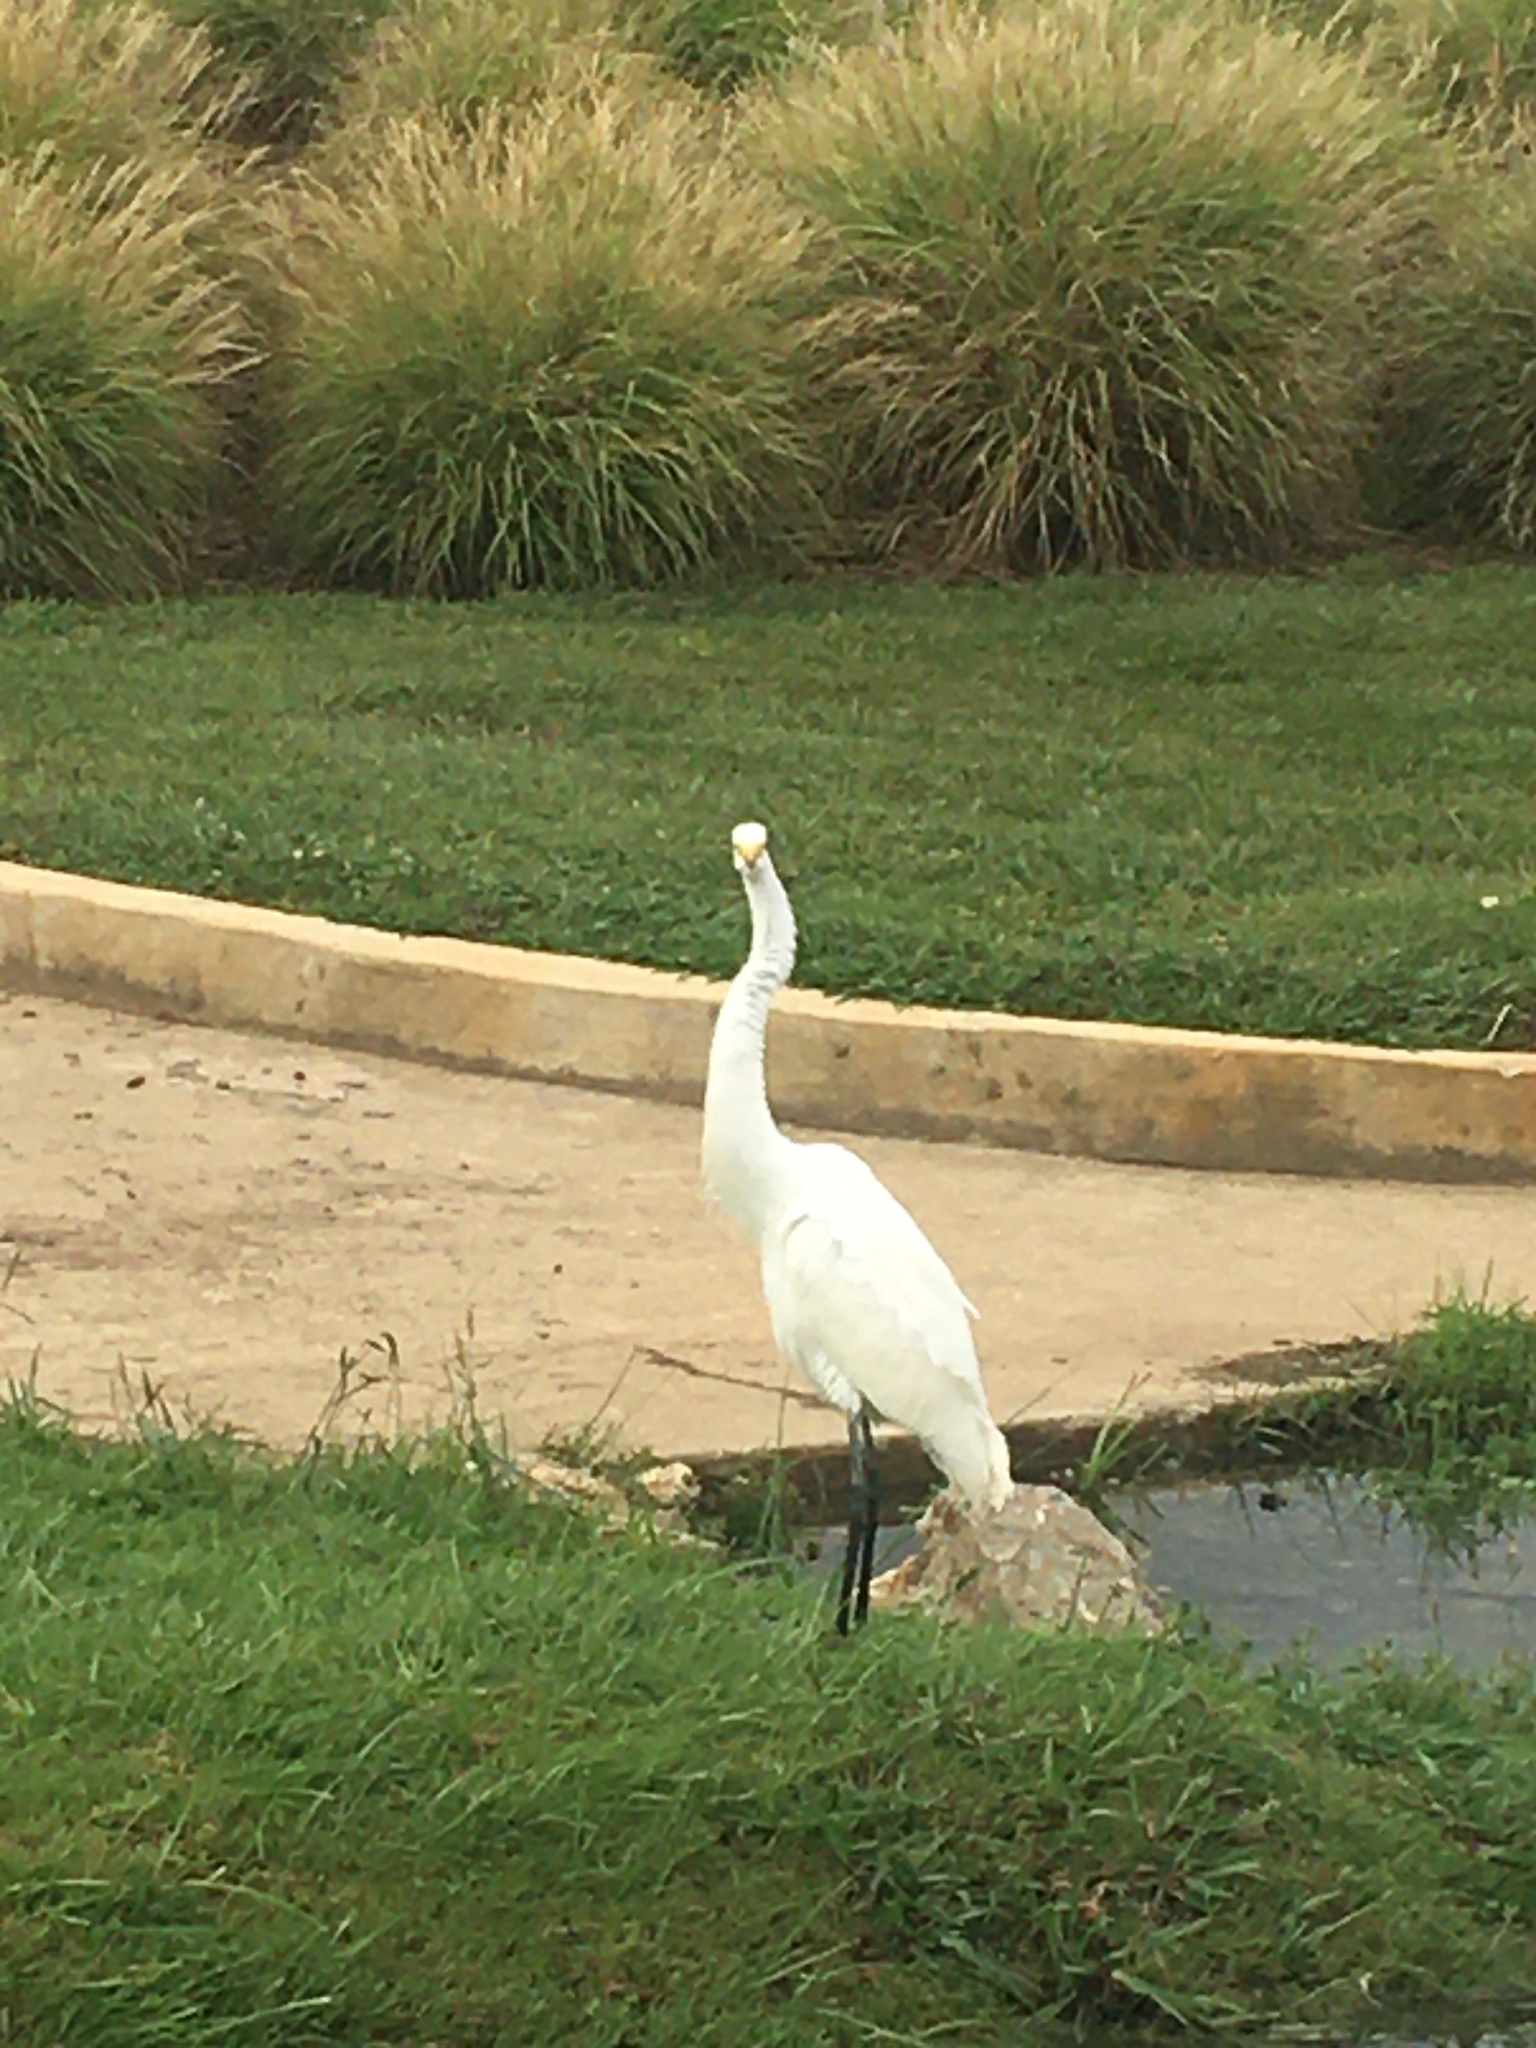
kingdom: Animalia
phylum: Chordata
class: Aves
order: Pelecaniformes
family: Ardeidae
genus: Ardea
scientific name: Ardea alba
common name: Great egret
